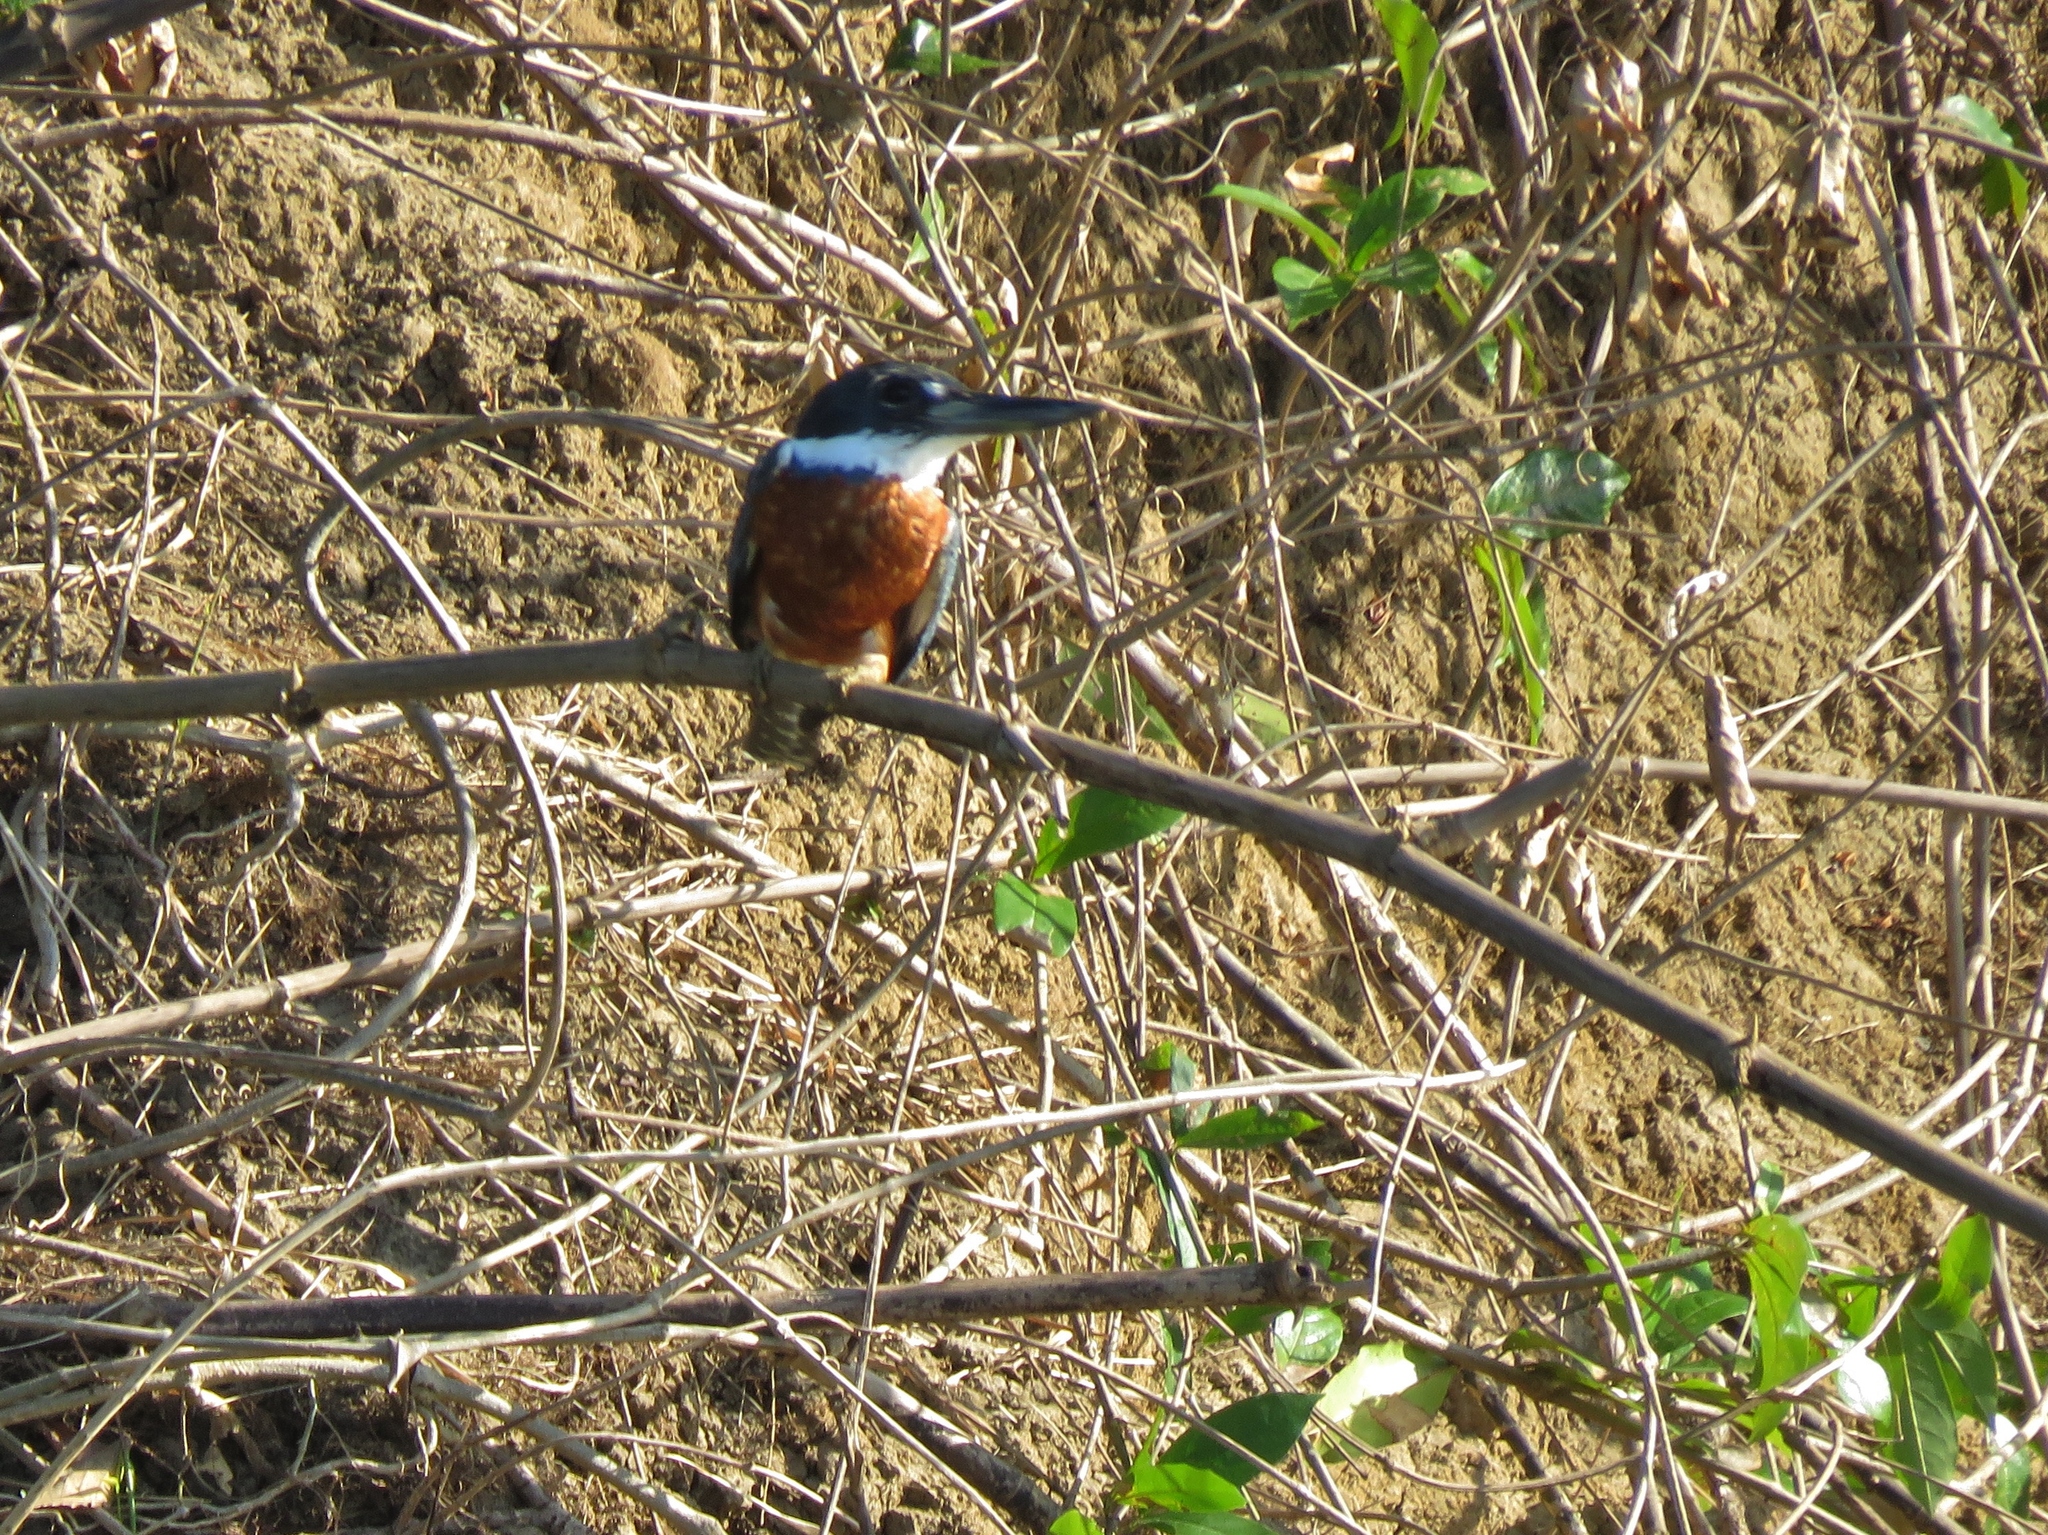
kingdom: Animalia
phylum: Chordata
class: Aves
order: Coraciiformes
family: Alcedinidae
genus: Megaceryle
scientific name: Megaceryle torquata
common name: Ringed kingfisher
